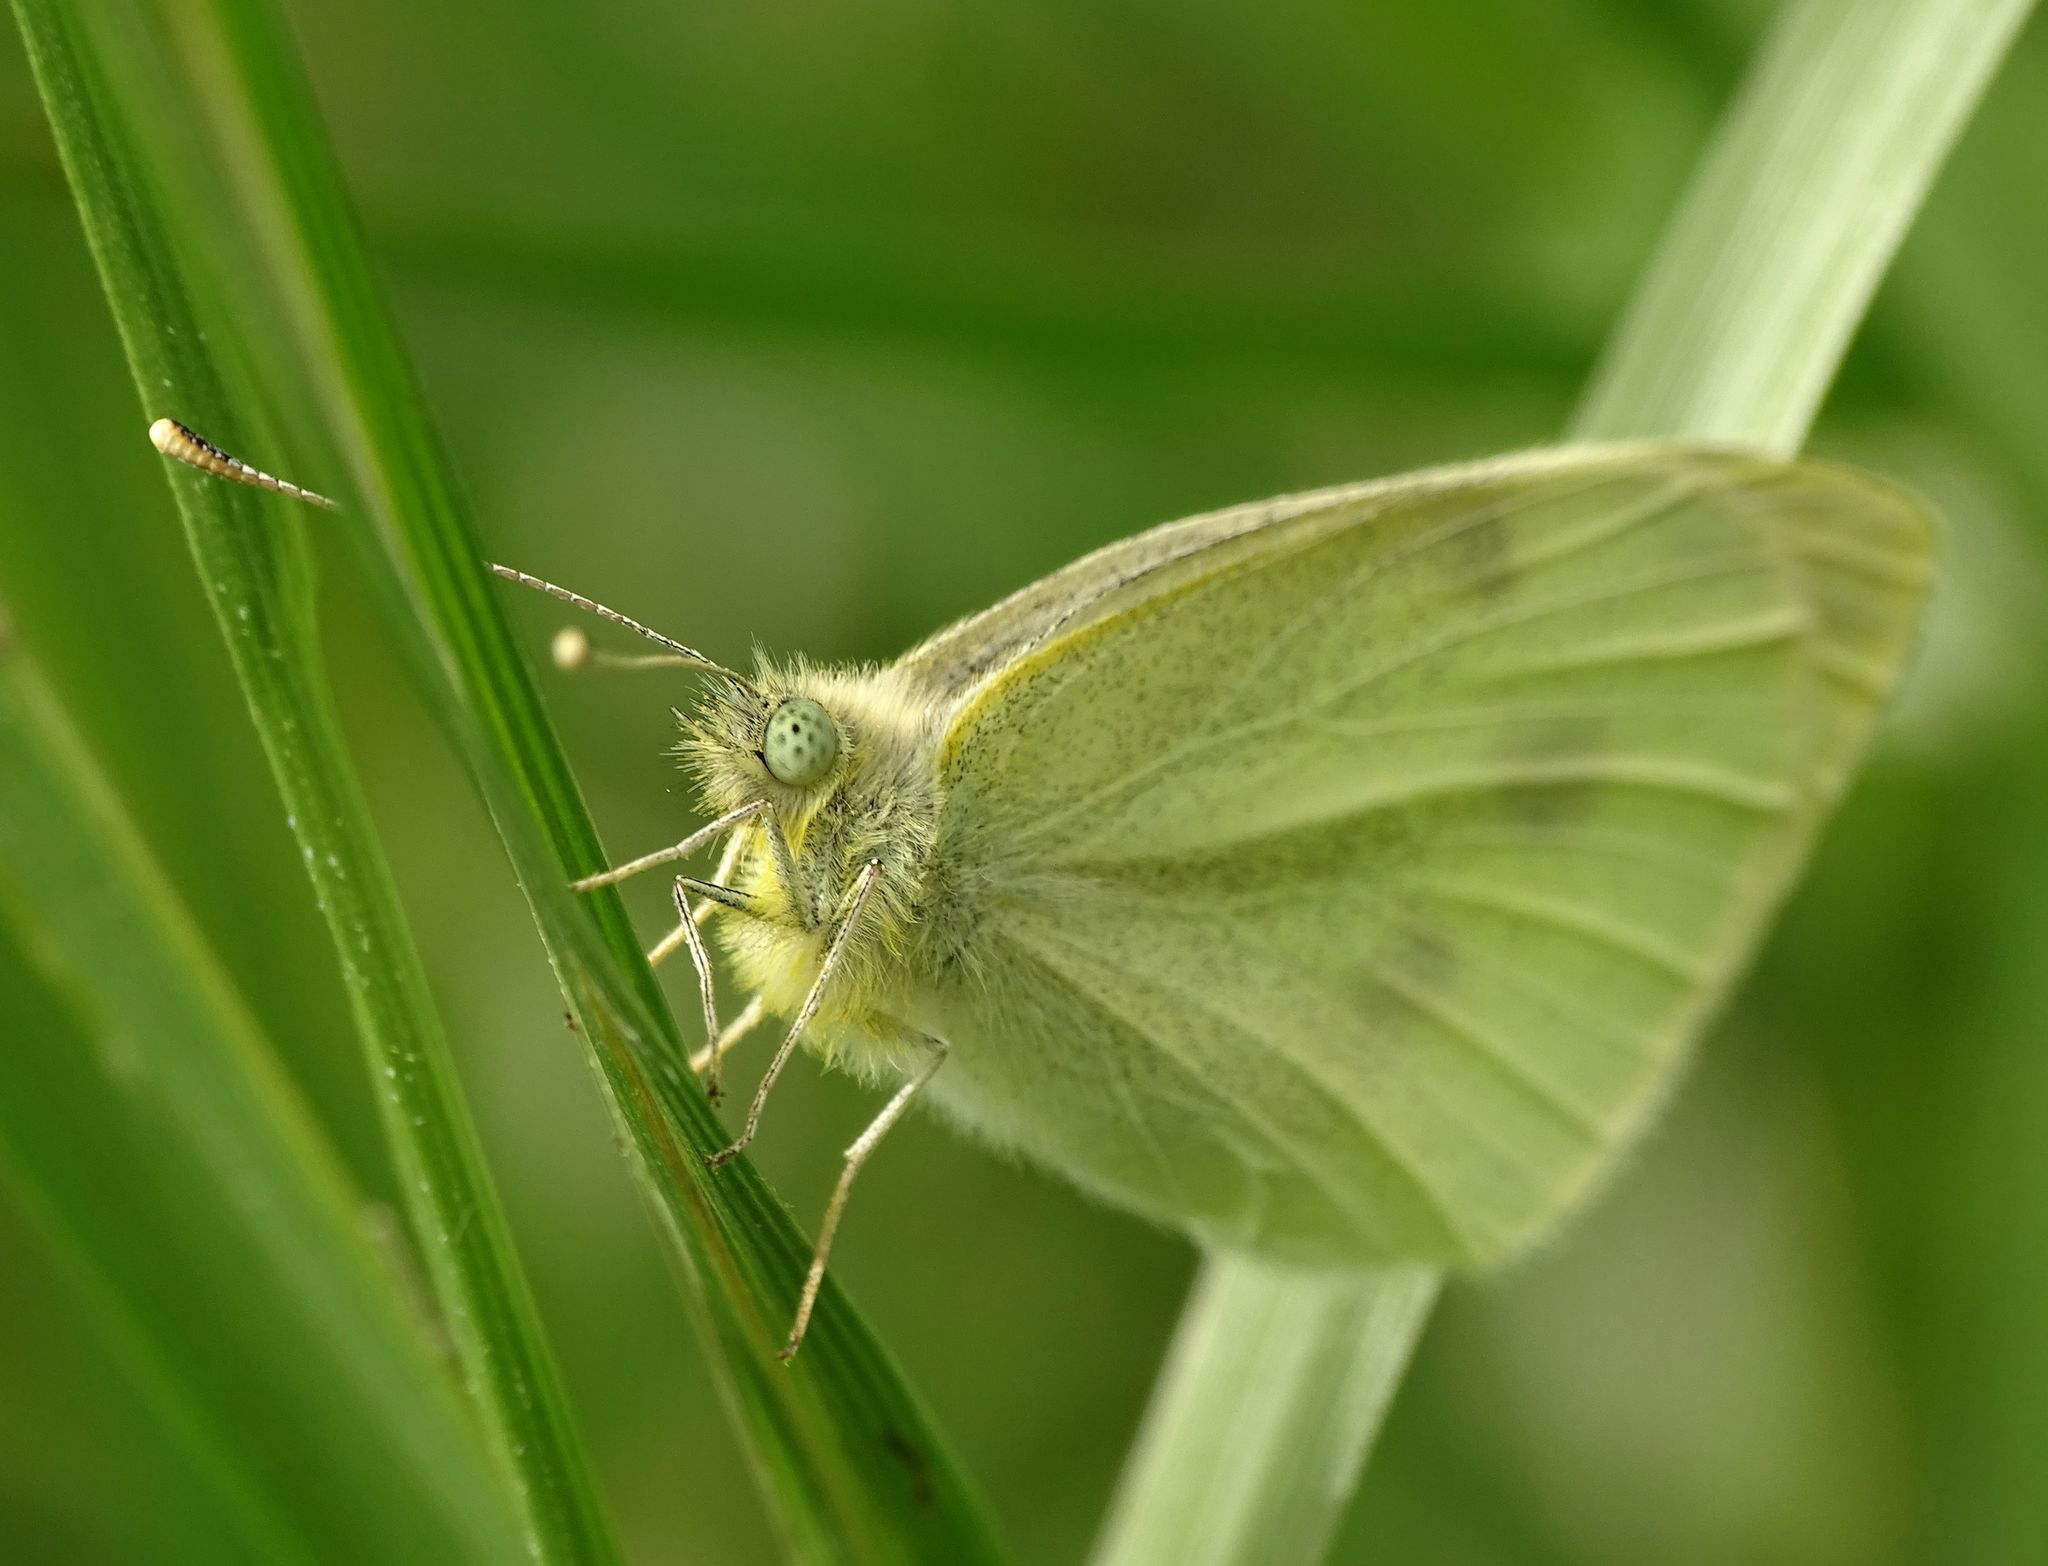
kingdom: Animalia
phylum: Arthropoda
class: Insecta
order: Lepidoptera
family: Pieridae
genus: Pieris
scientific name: Pieris rapae
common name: Small white
